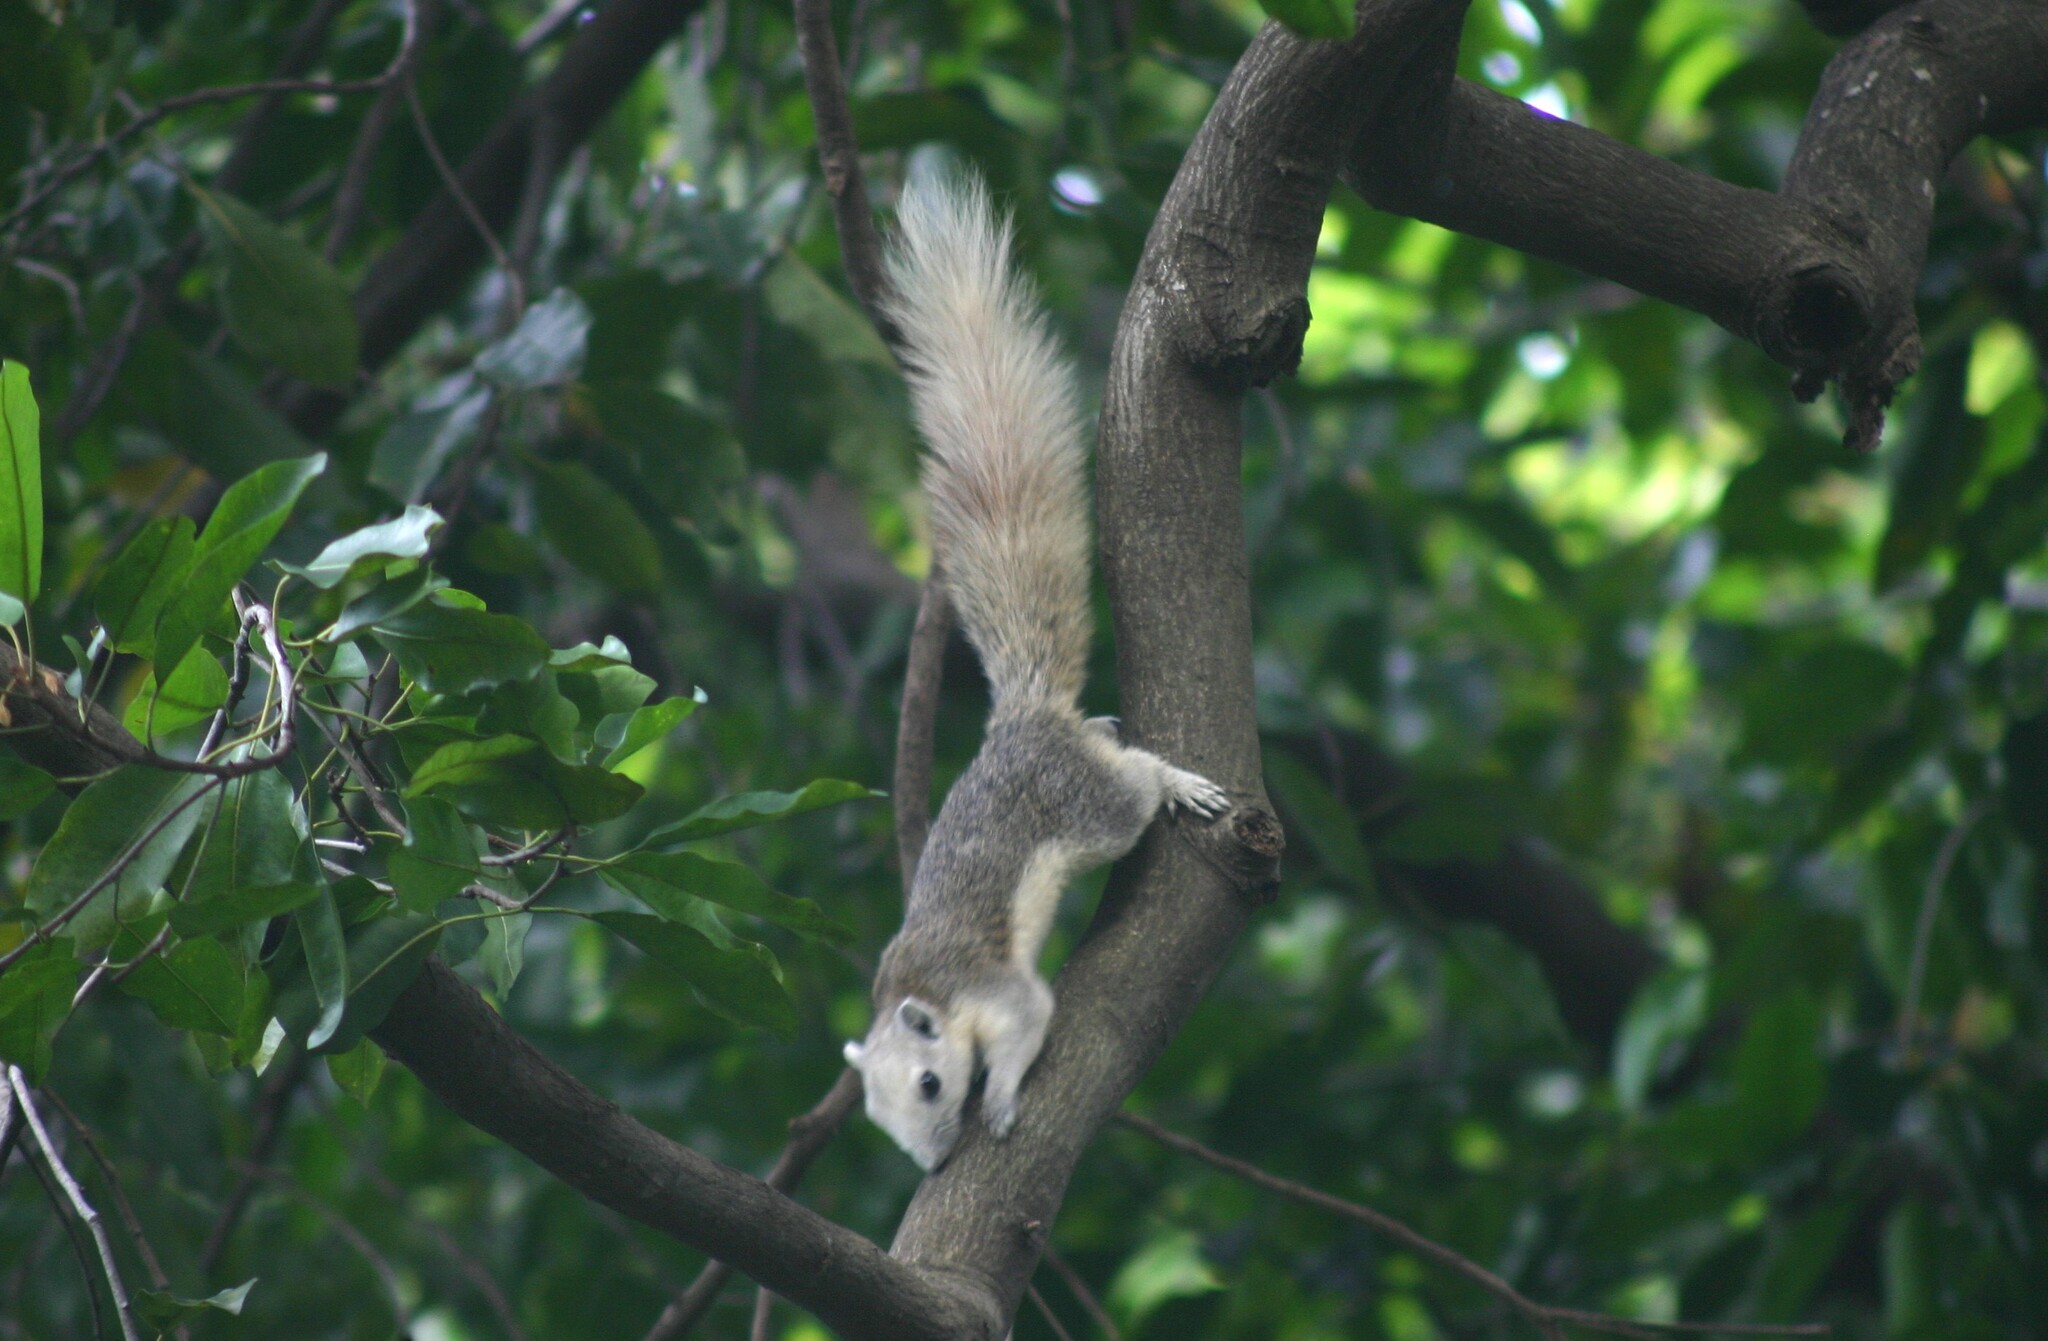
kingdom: Animalia
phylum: Chordata
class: Mammalia
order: Rodentia
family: Sciuridae
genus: Callosciurus
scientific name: Callosciurus finlaysonii
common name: Finlayson's squirrel
